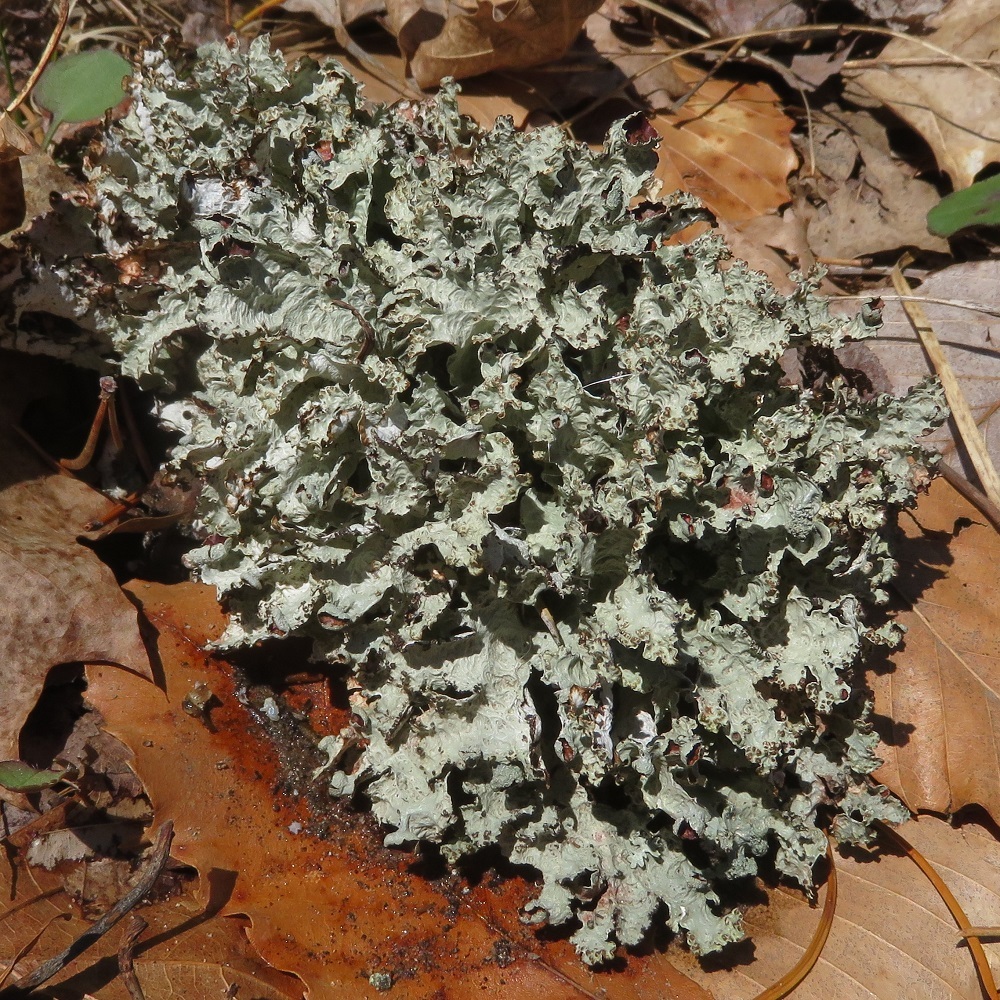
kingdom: Fungi
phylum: Ascomycota
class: Lecanoromycetes
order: Lecanorales
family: Parmeliaceae
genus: Platismatia
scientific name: Platismatia tuckermanii
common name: Crumpled rag lichen
